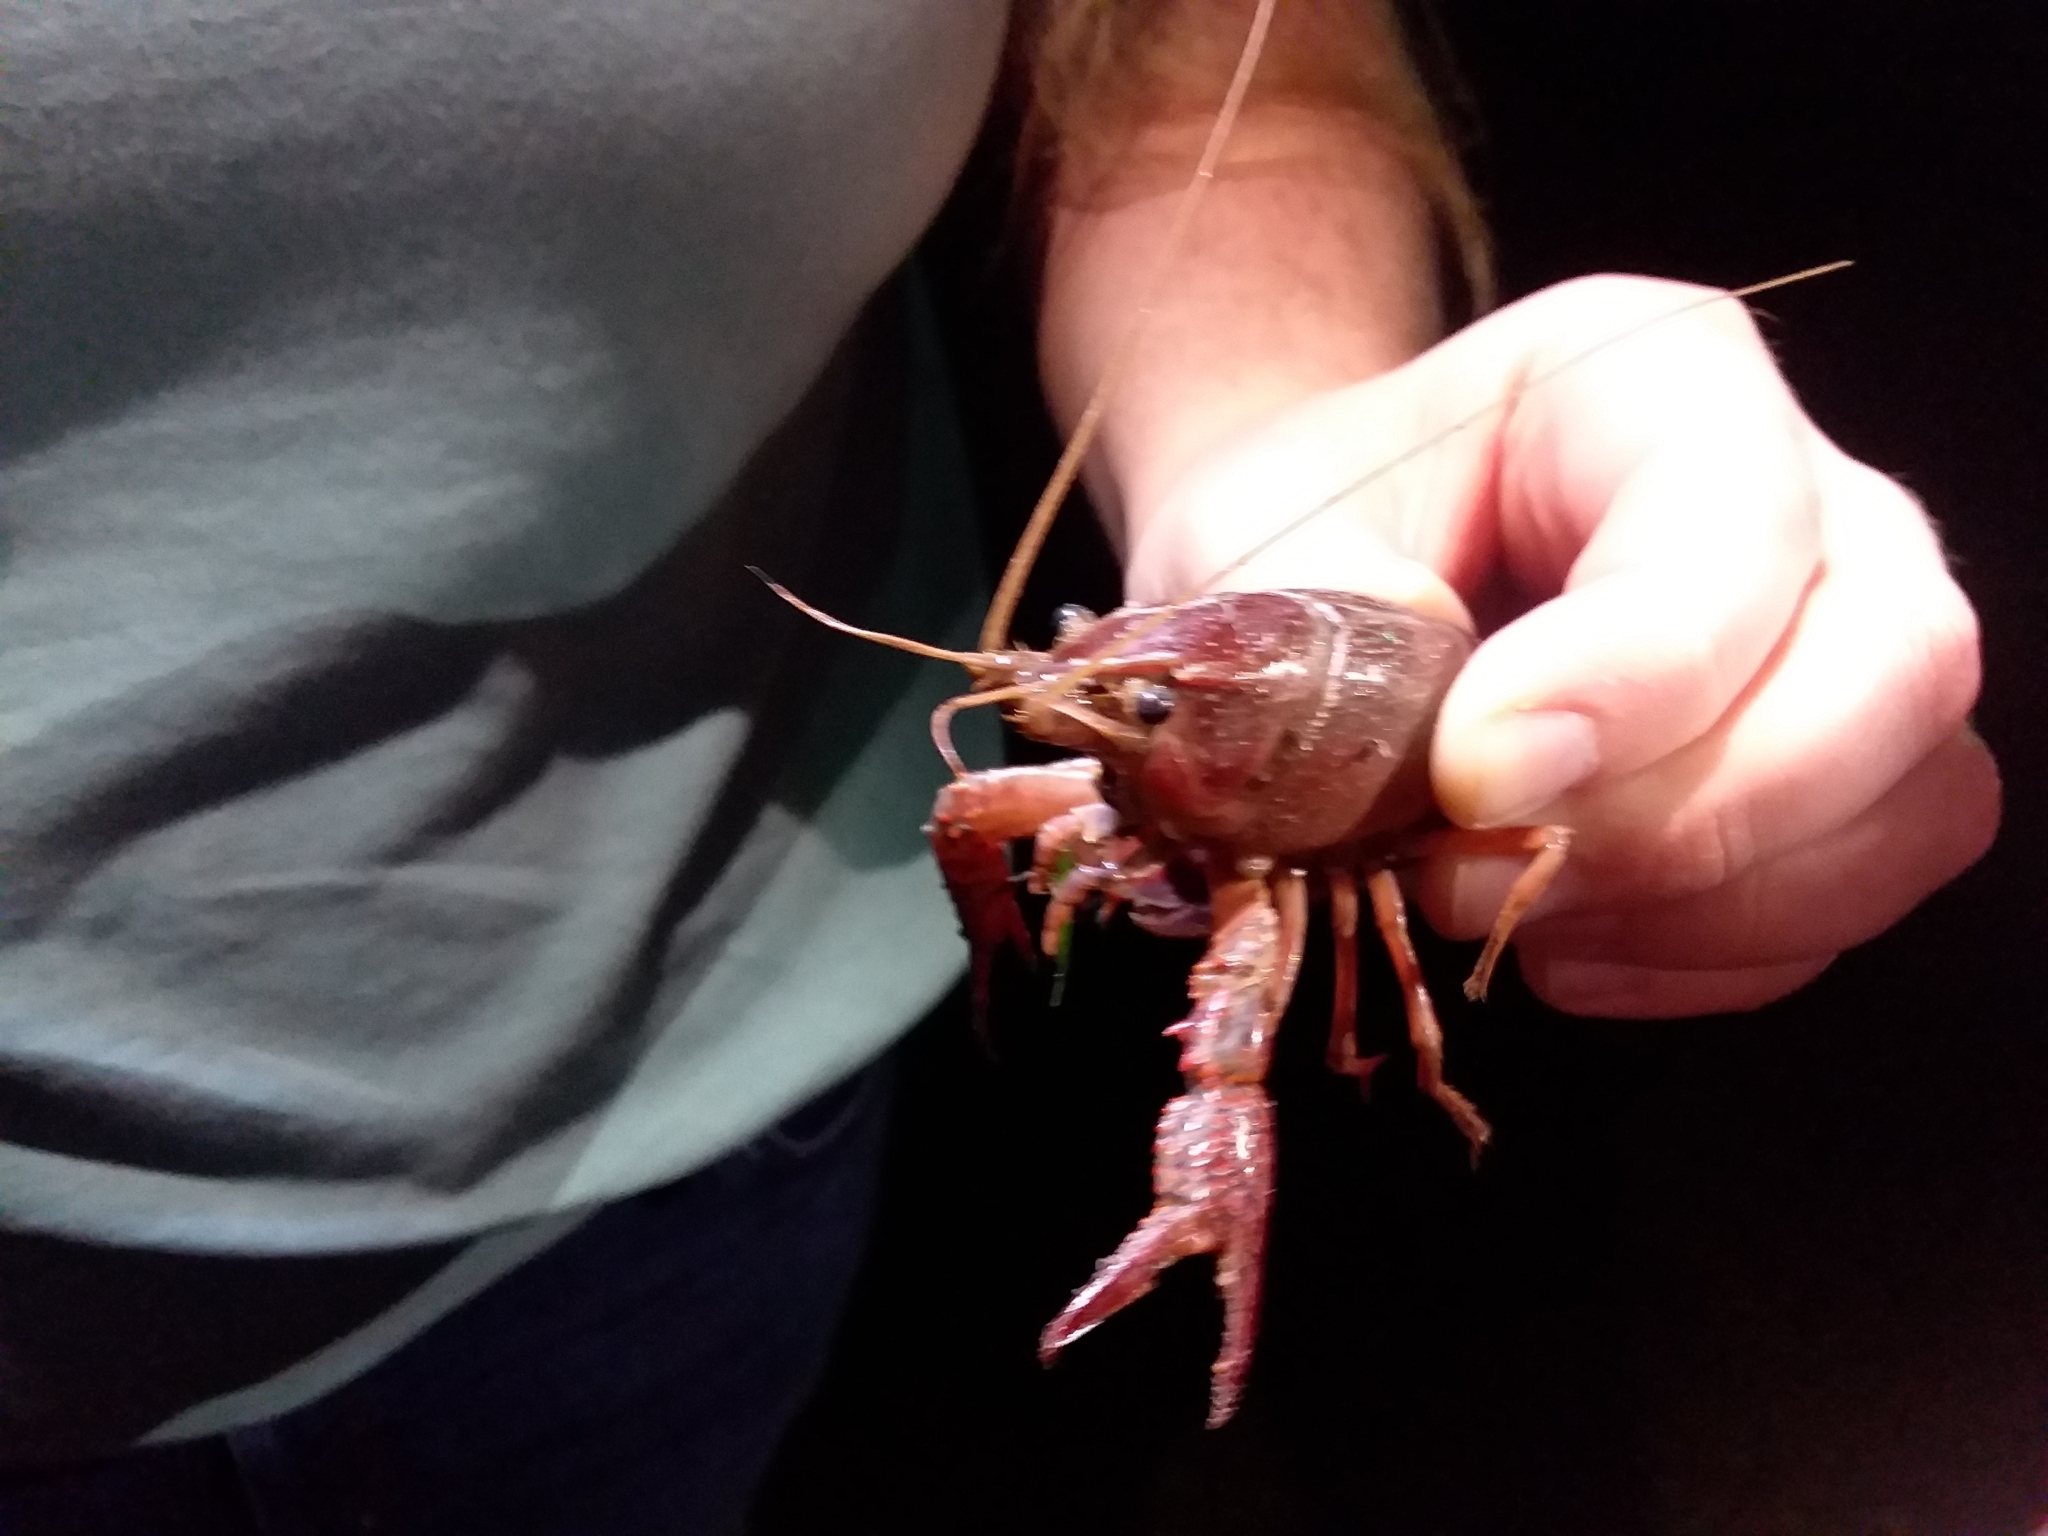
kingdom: Animalia
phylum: Arthropoda
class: Malacostraca
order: Decapoda
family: Cambaridae
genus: Procambarus
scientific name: Procambarus clarkii
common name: Red swamp crayfish
